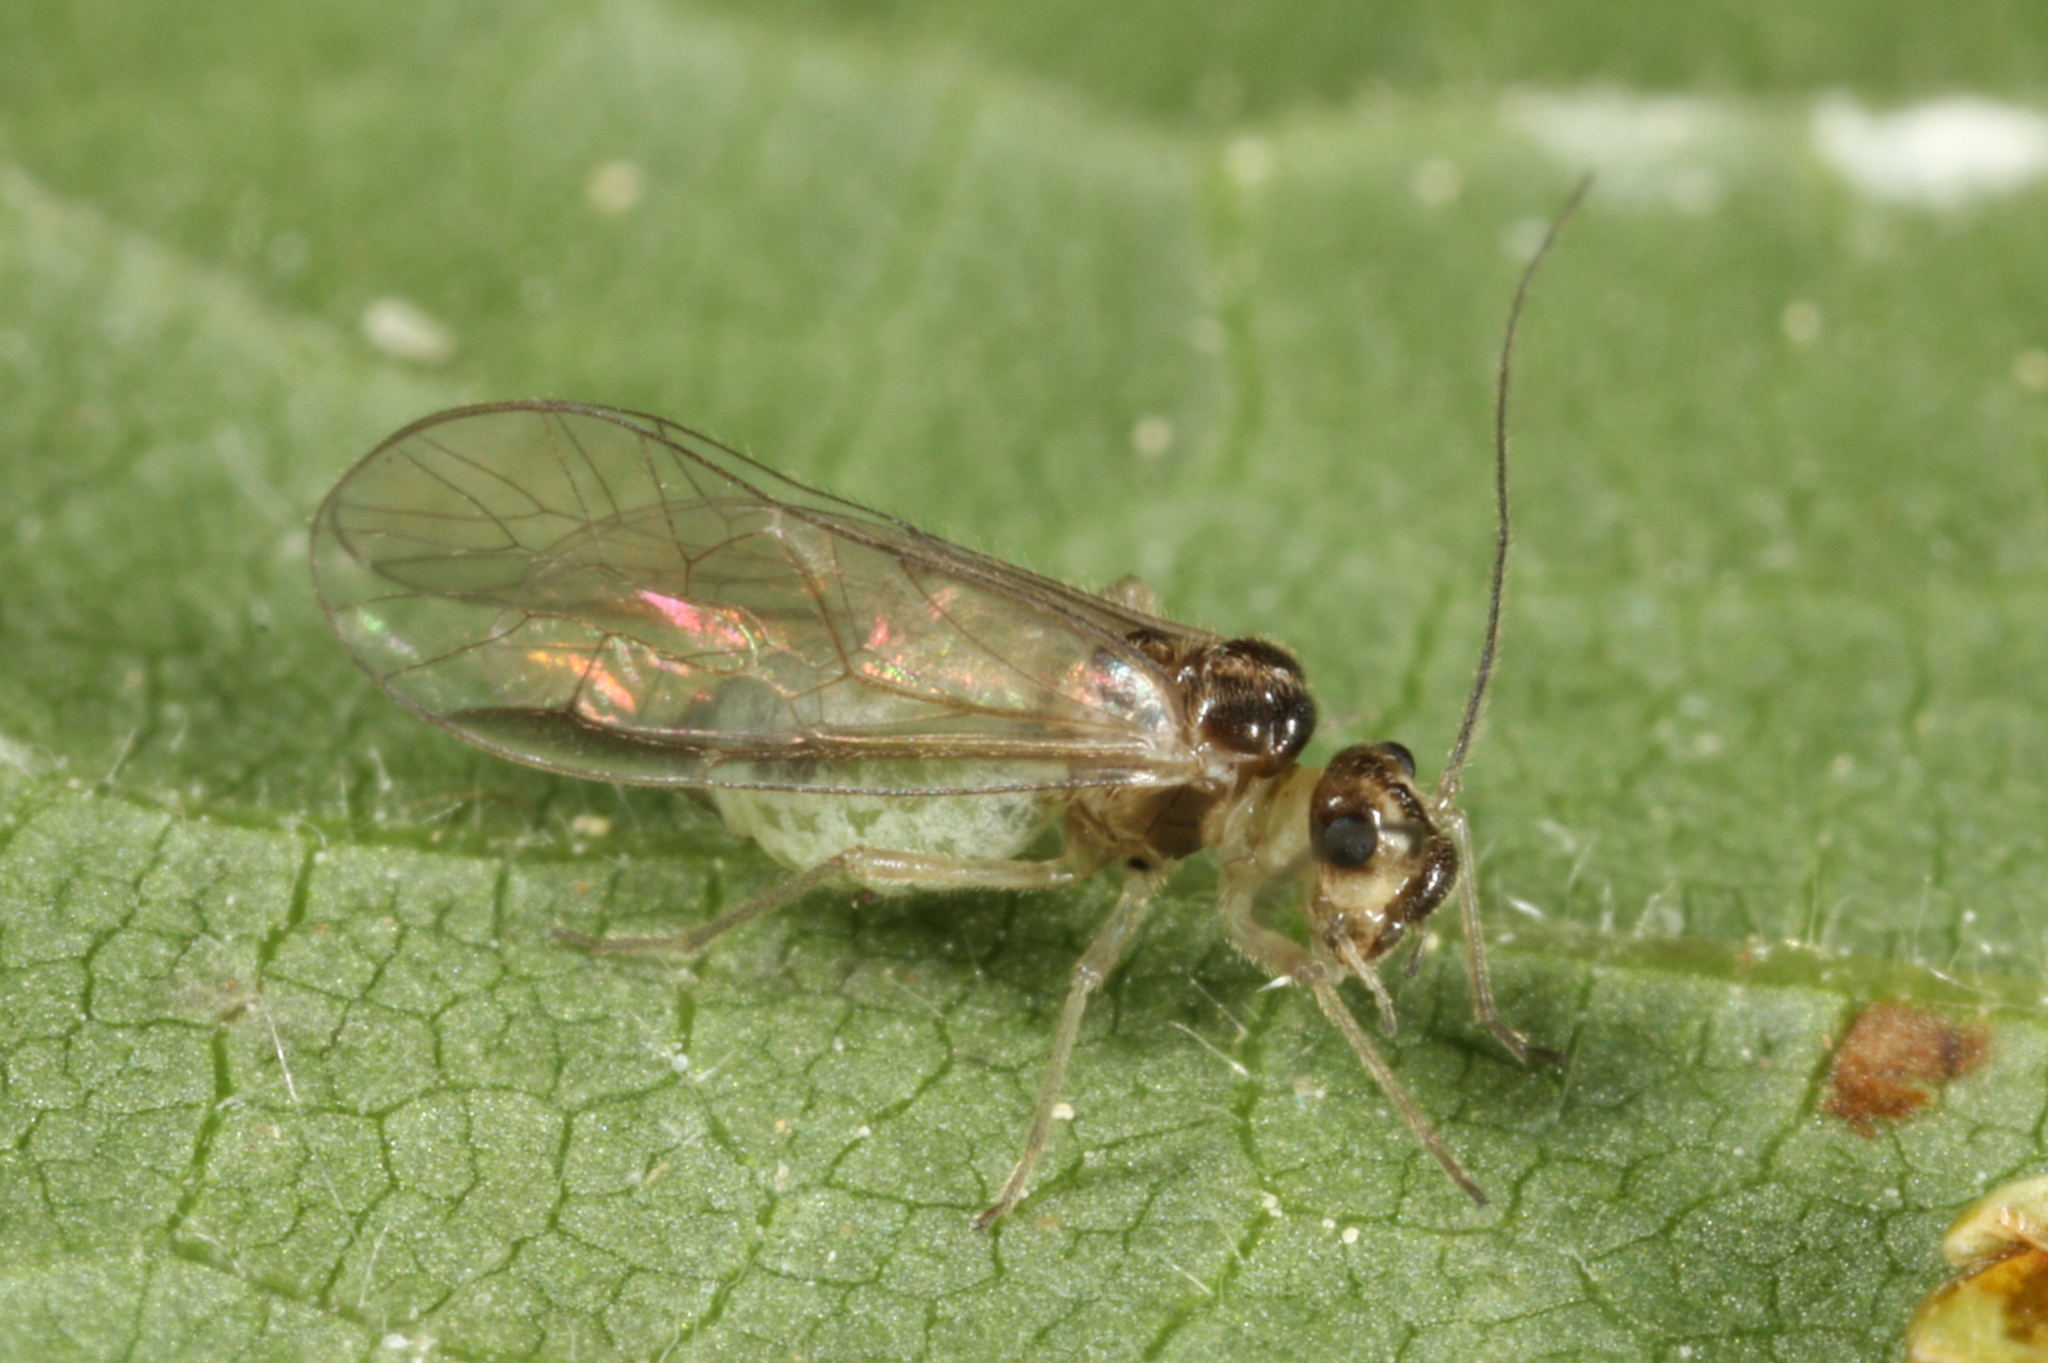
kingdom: Animalia
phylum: Arthropoda
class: Insecta
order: Psocodea
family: Stenopsocidae
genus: Stenopsocus
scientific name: Stenopsocus immaculatus
